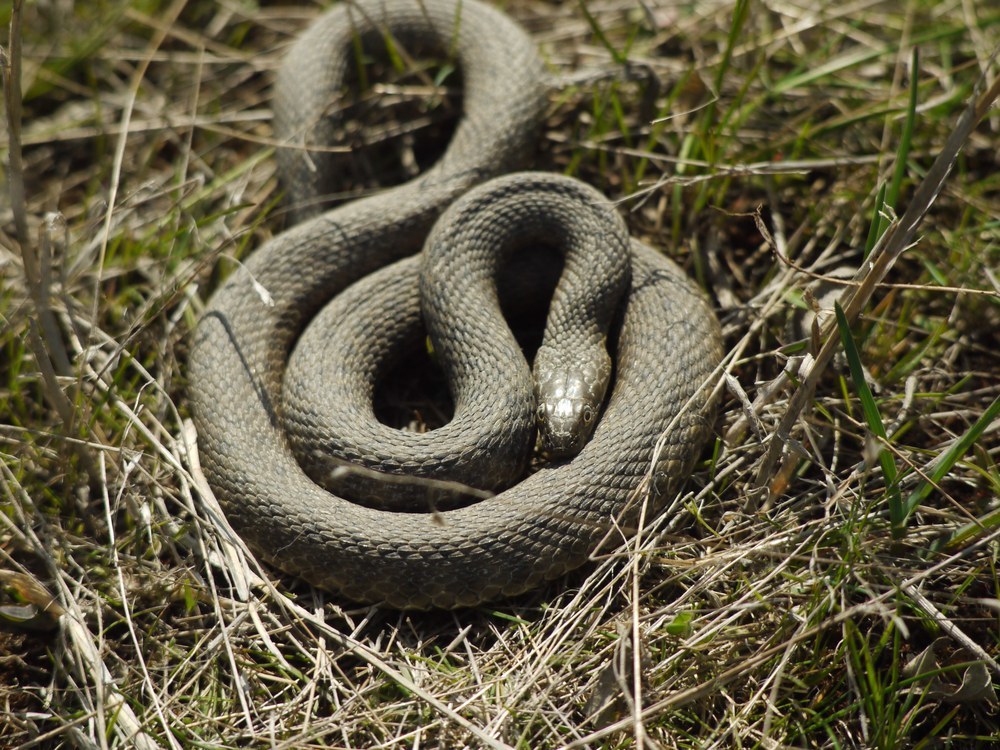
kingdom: Animalia
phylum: Chordata
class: Squamata
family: Colubridae
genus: Natrix
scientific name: Natrix tessellata
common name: Dice snake
